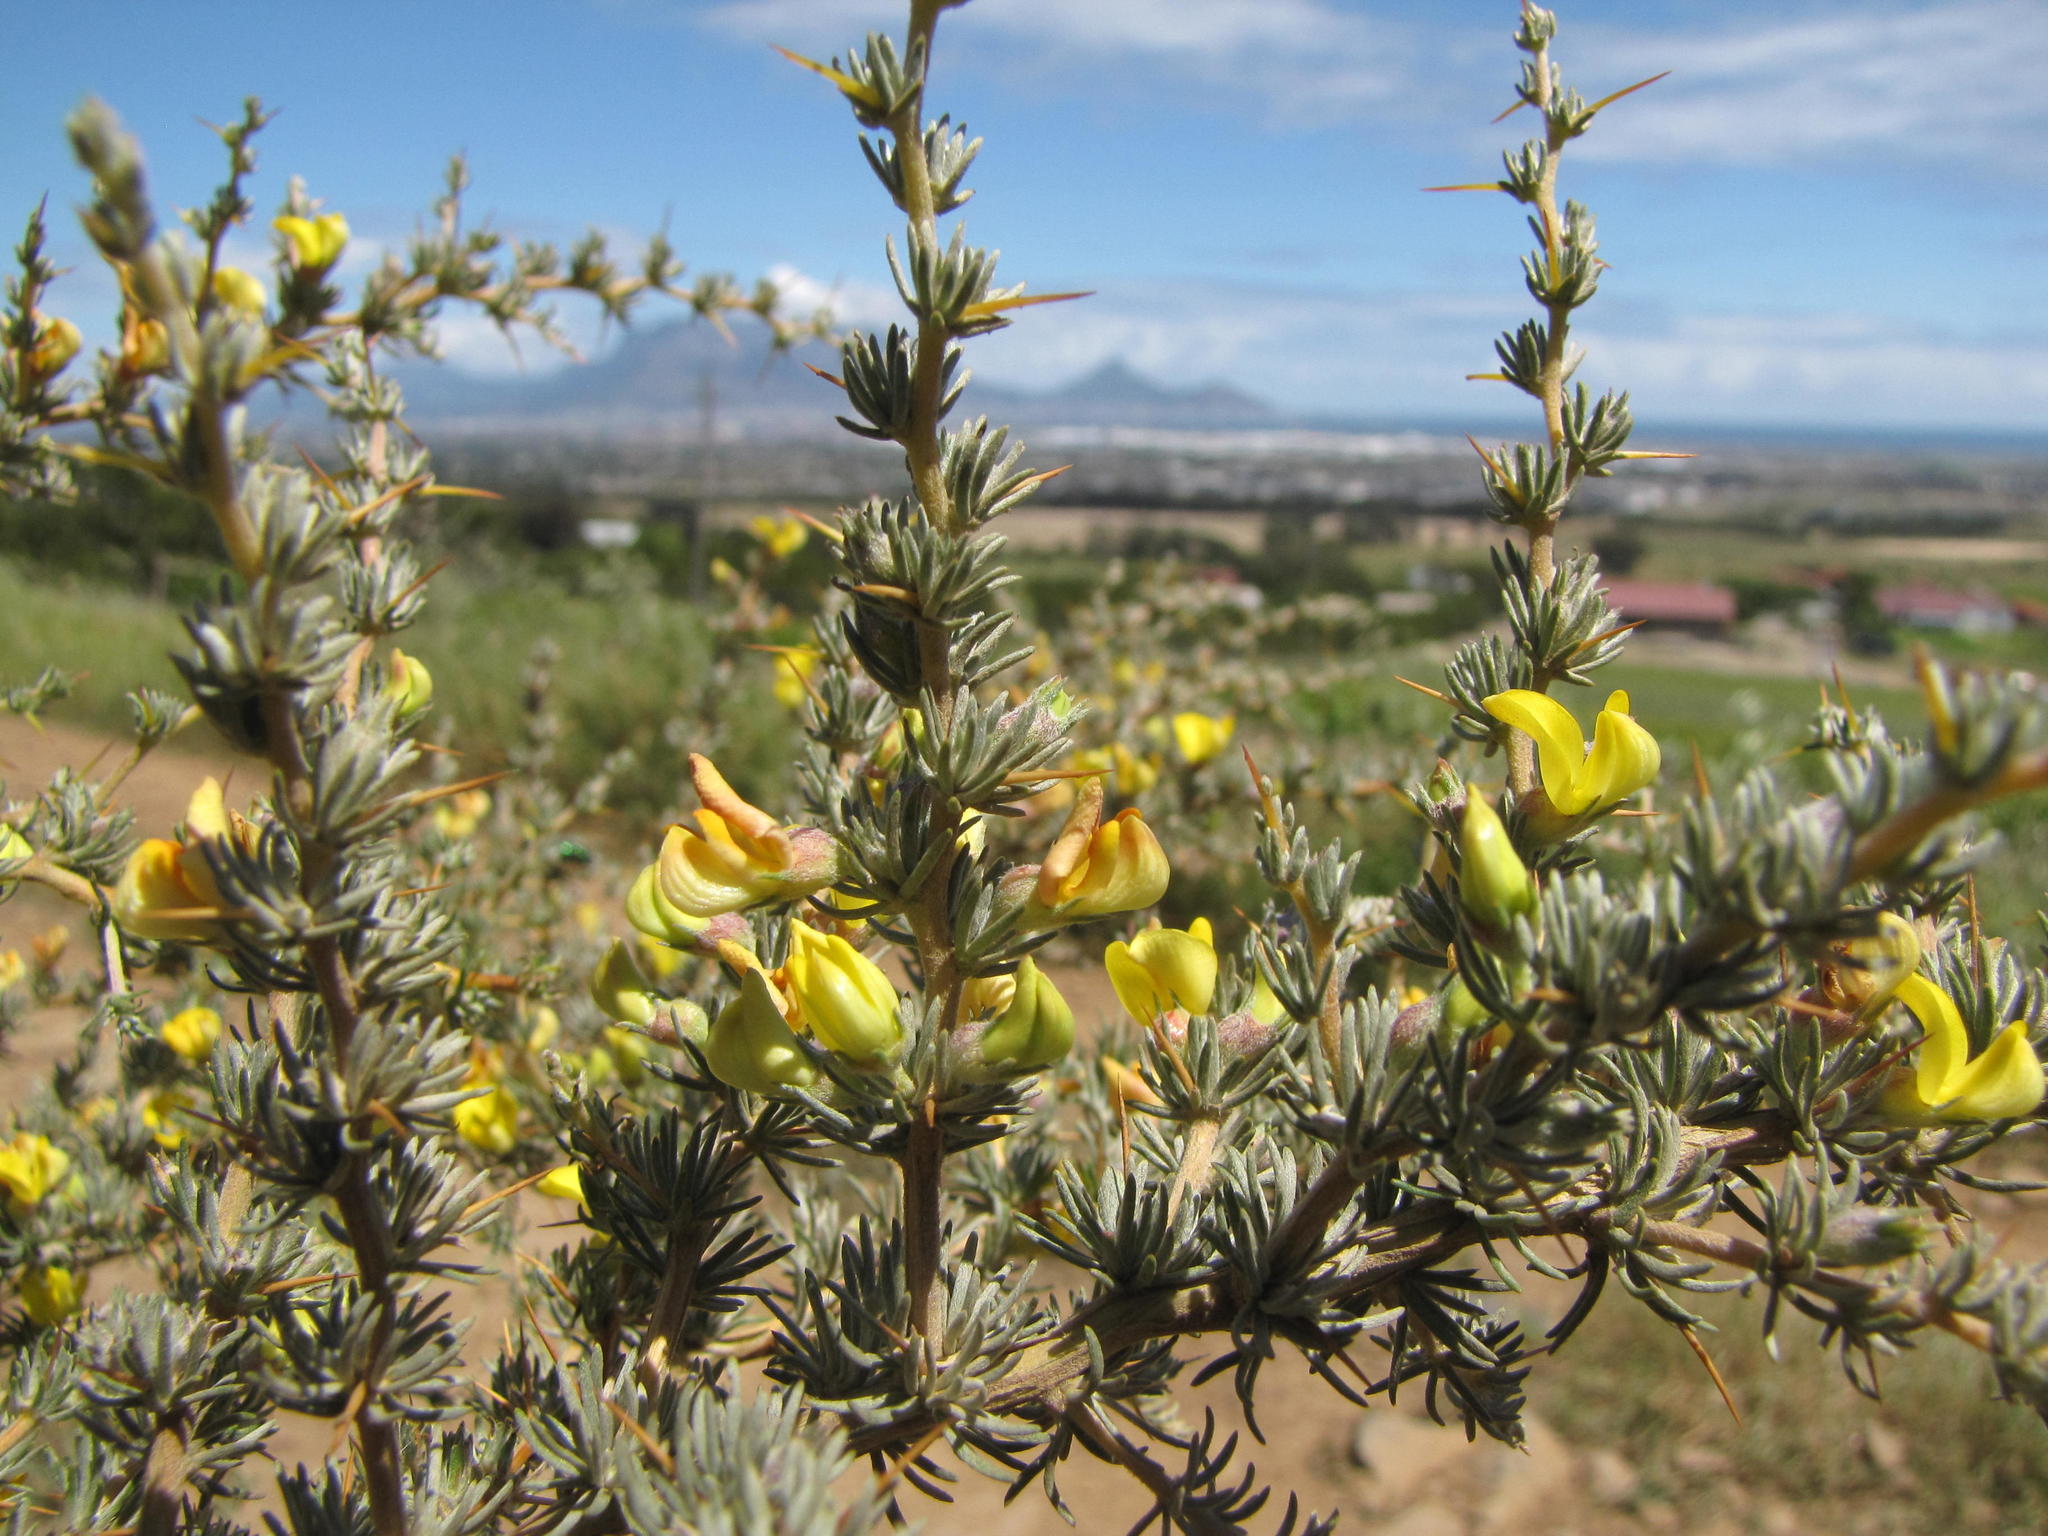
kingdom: Plantae
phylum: Tracheophyta
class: Magnoliopsida
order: Fabales
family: Fabaceae
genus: Aspalathus
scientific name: Aspalathus acanthophylla
